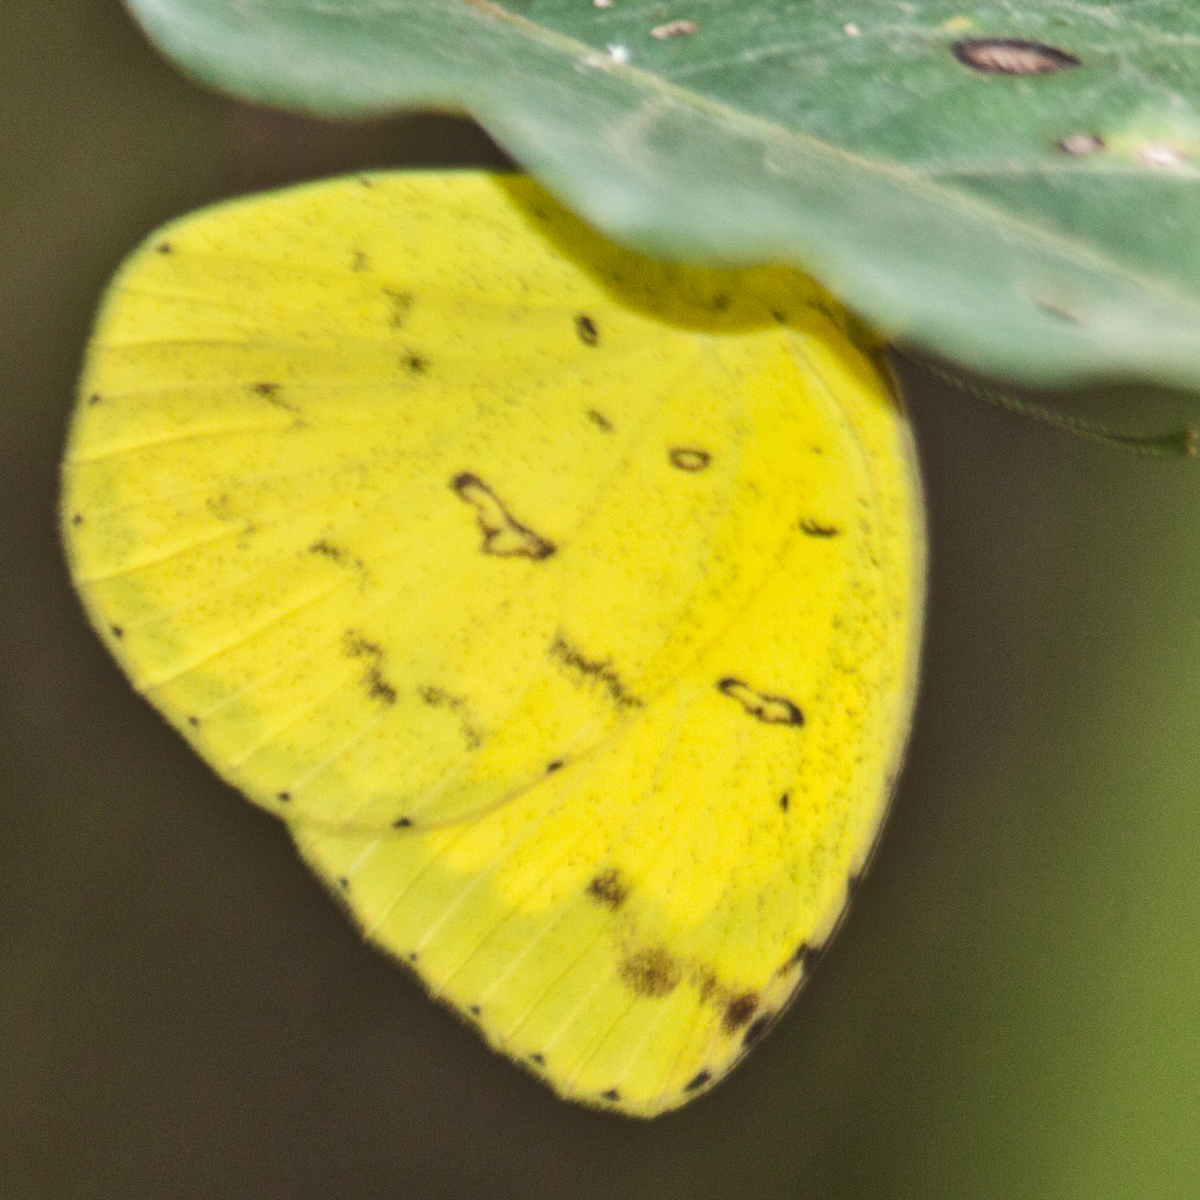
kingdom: Animalia
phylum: Arthropoda
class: Insecta
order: Lepidoptera
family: Pieridae
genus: Eurema
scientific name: Eurema hecabe
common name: Pale grass yellow
